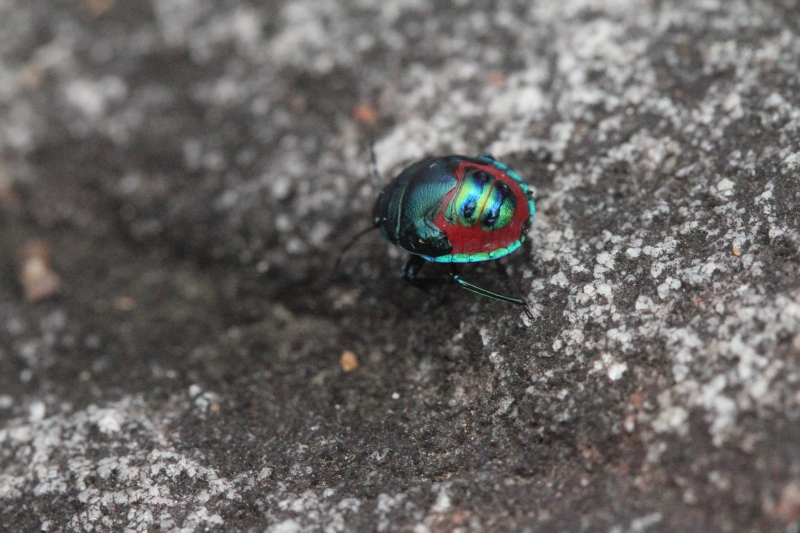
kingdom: Animalia
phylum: Arthropoda
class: Insecta
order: Hemiptera
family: Scutelleridae
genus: Choerocoris
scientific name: Choerocoris paganus
